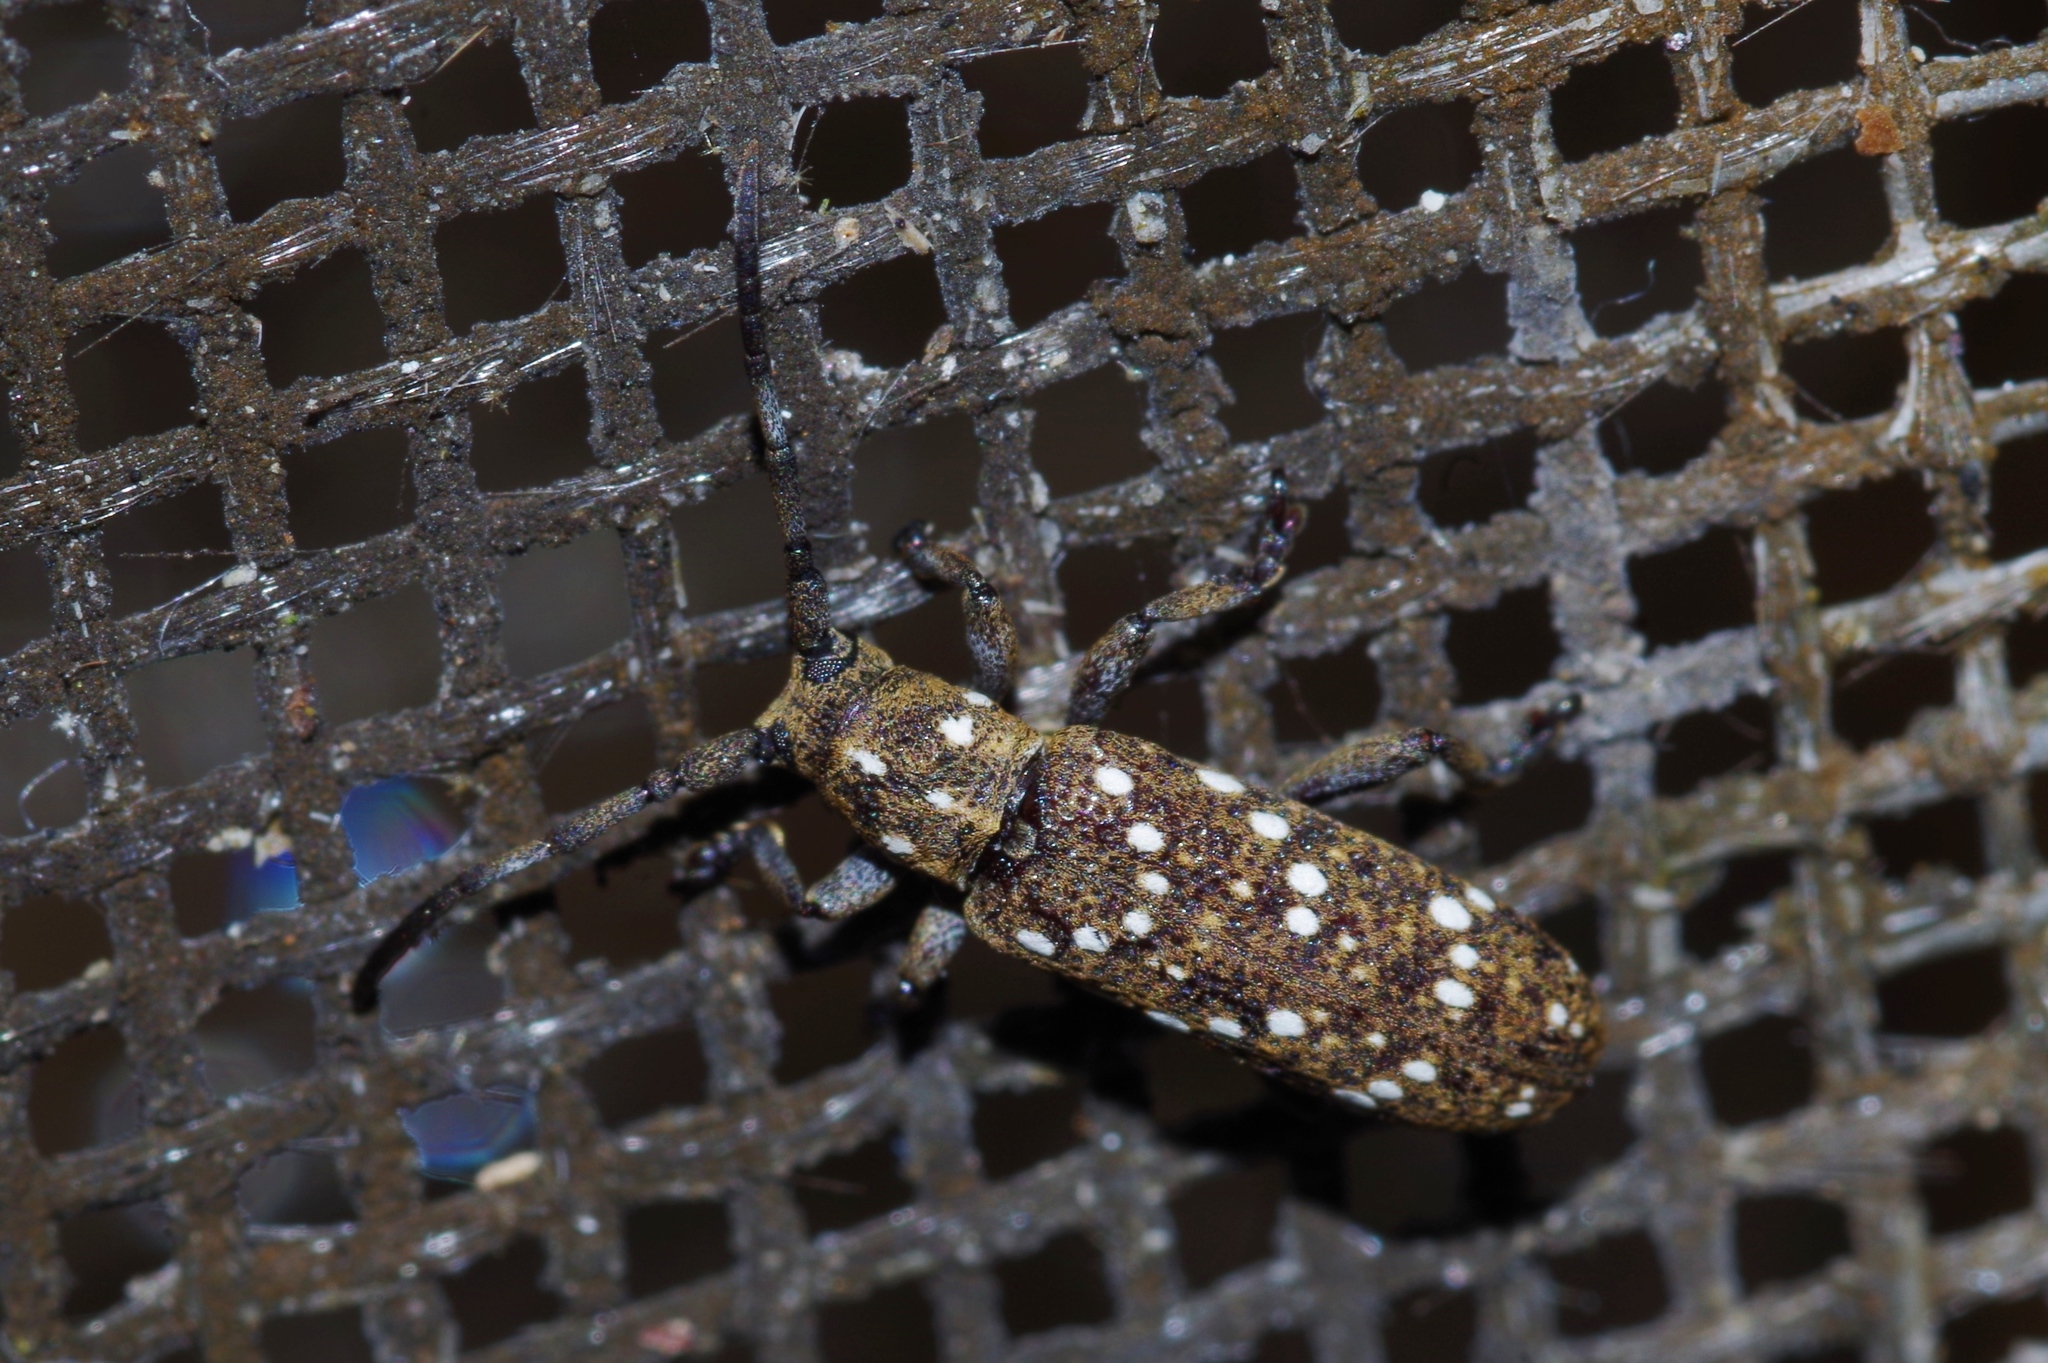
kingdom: Animalia
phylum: Arthropoda
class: Insecta
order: Coleoptera
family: Cerambycidae
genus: Apomecyna
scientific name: Apomecyna histrio
